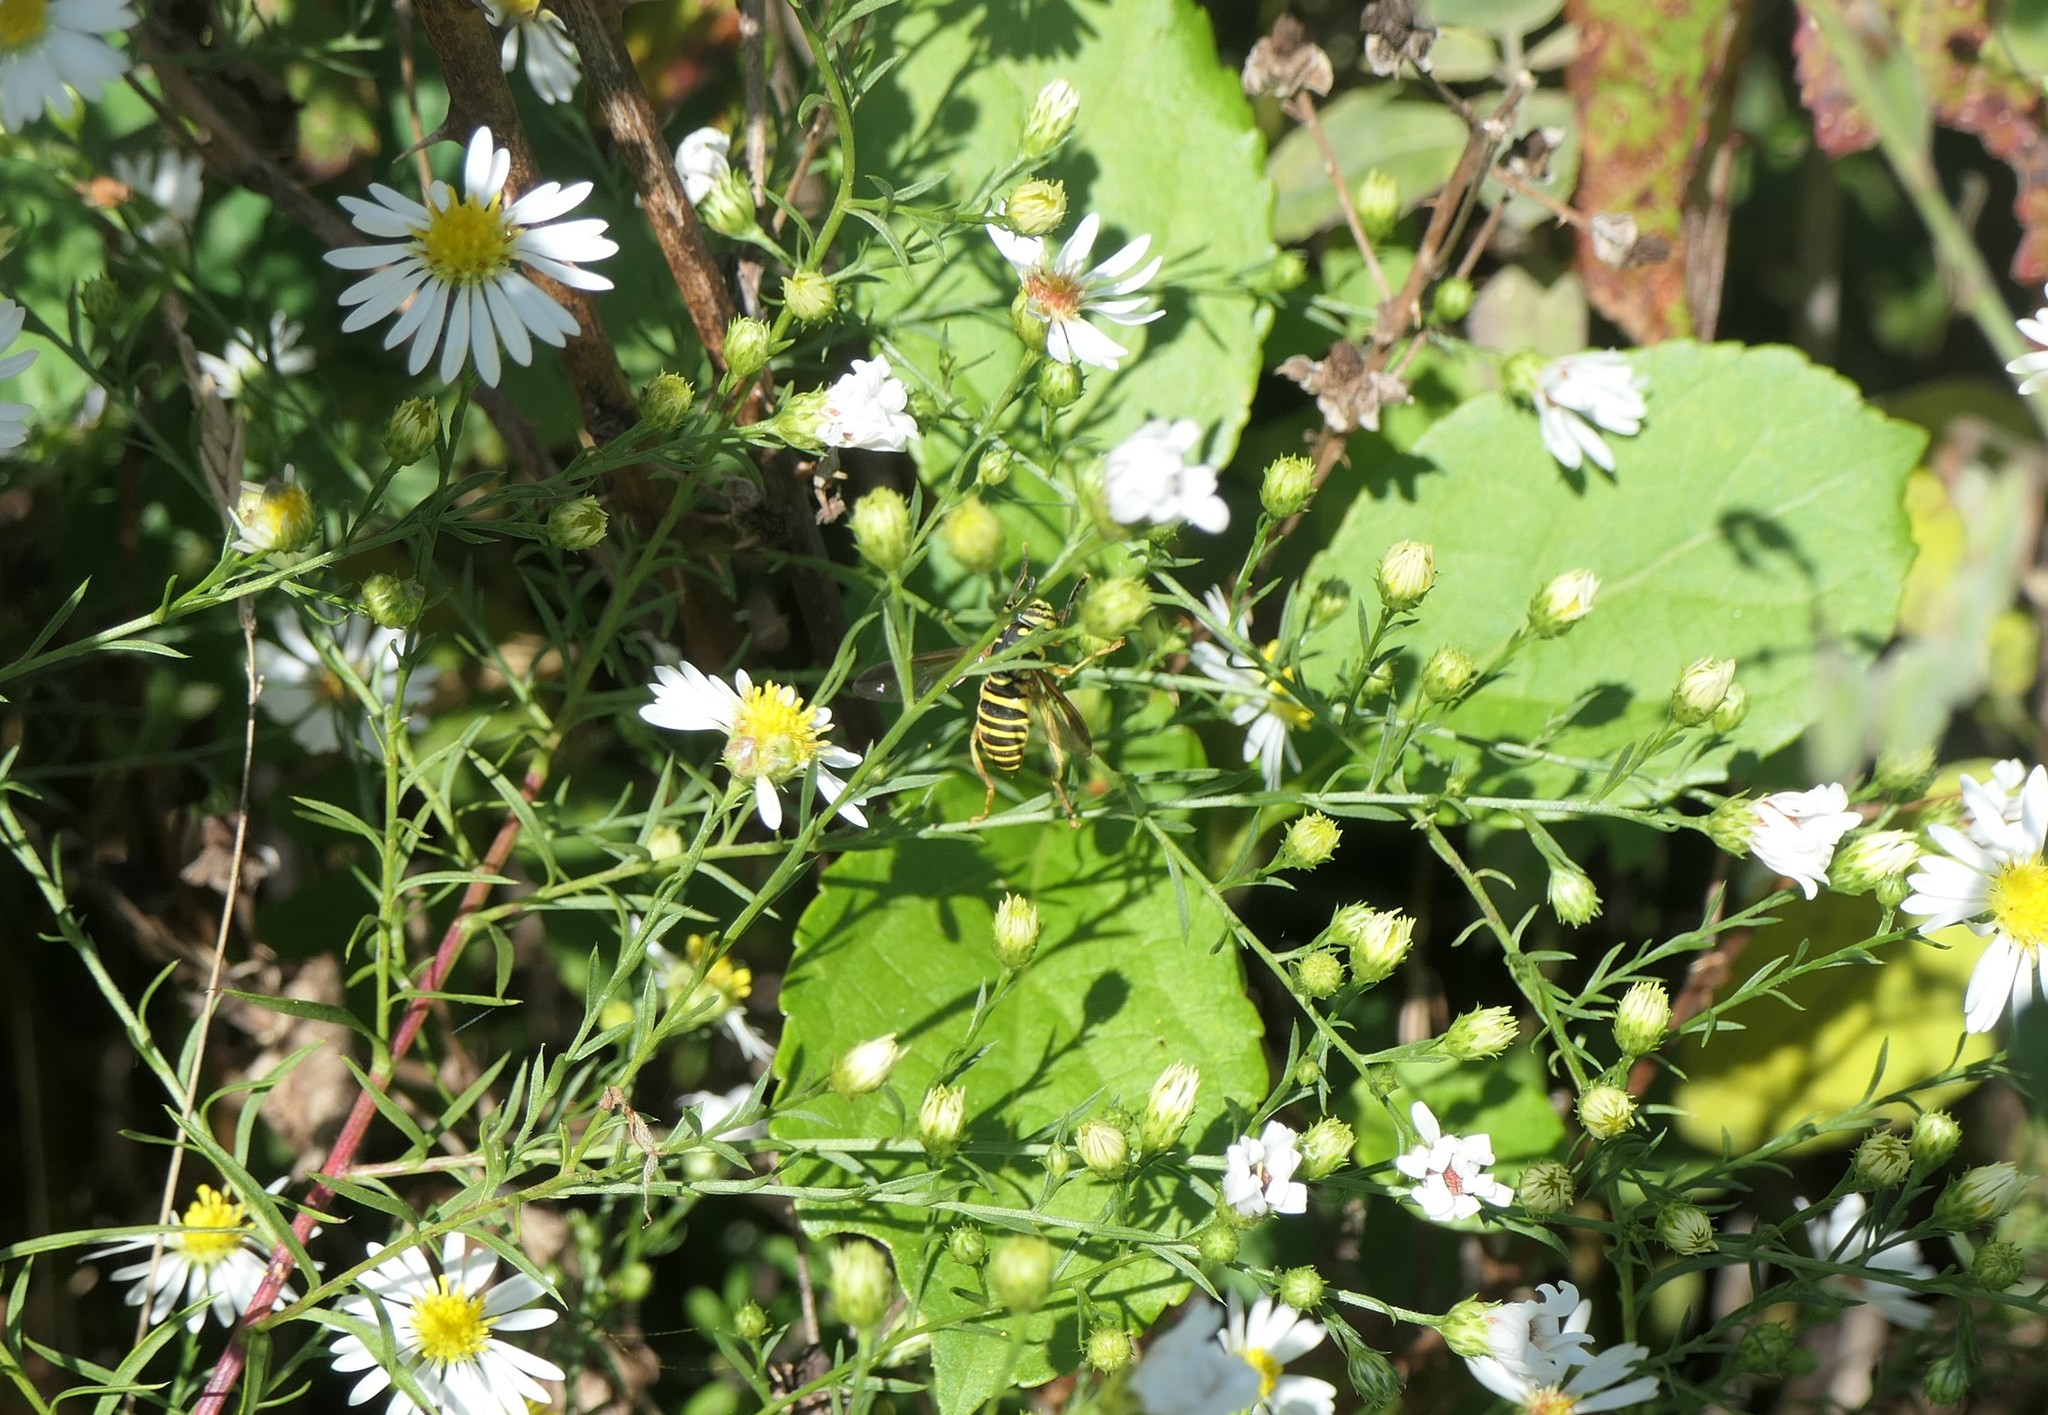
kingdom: Animalia
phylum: Arthropoda
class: Insecta
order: Diptera
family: Syrphidae
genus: Spilomyia
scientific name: Spilomyia longicornis
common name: Eastern hornet fly
